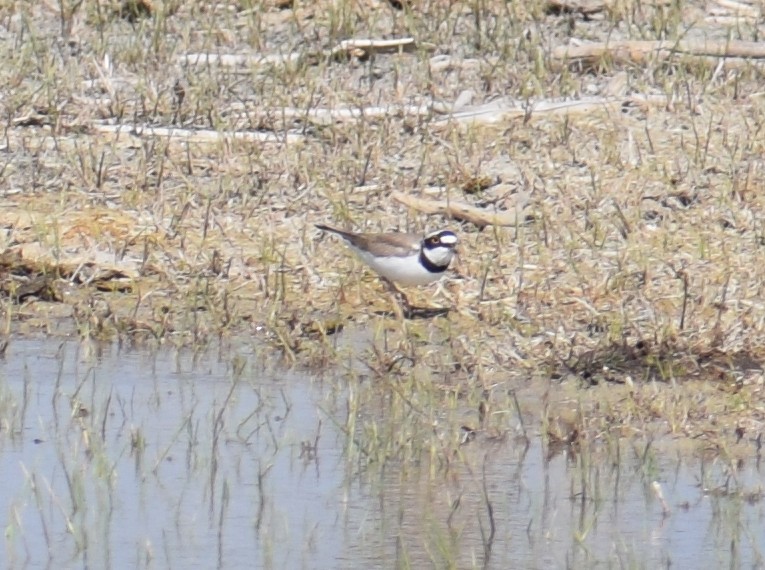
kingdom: Animalia
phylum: Chordata
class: Aves
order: Charadriiformes
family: Charadriidae
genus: Charadrius
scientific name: Charadrius dubius
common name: Little ringed plover
